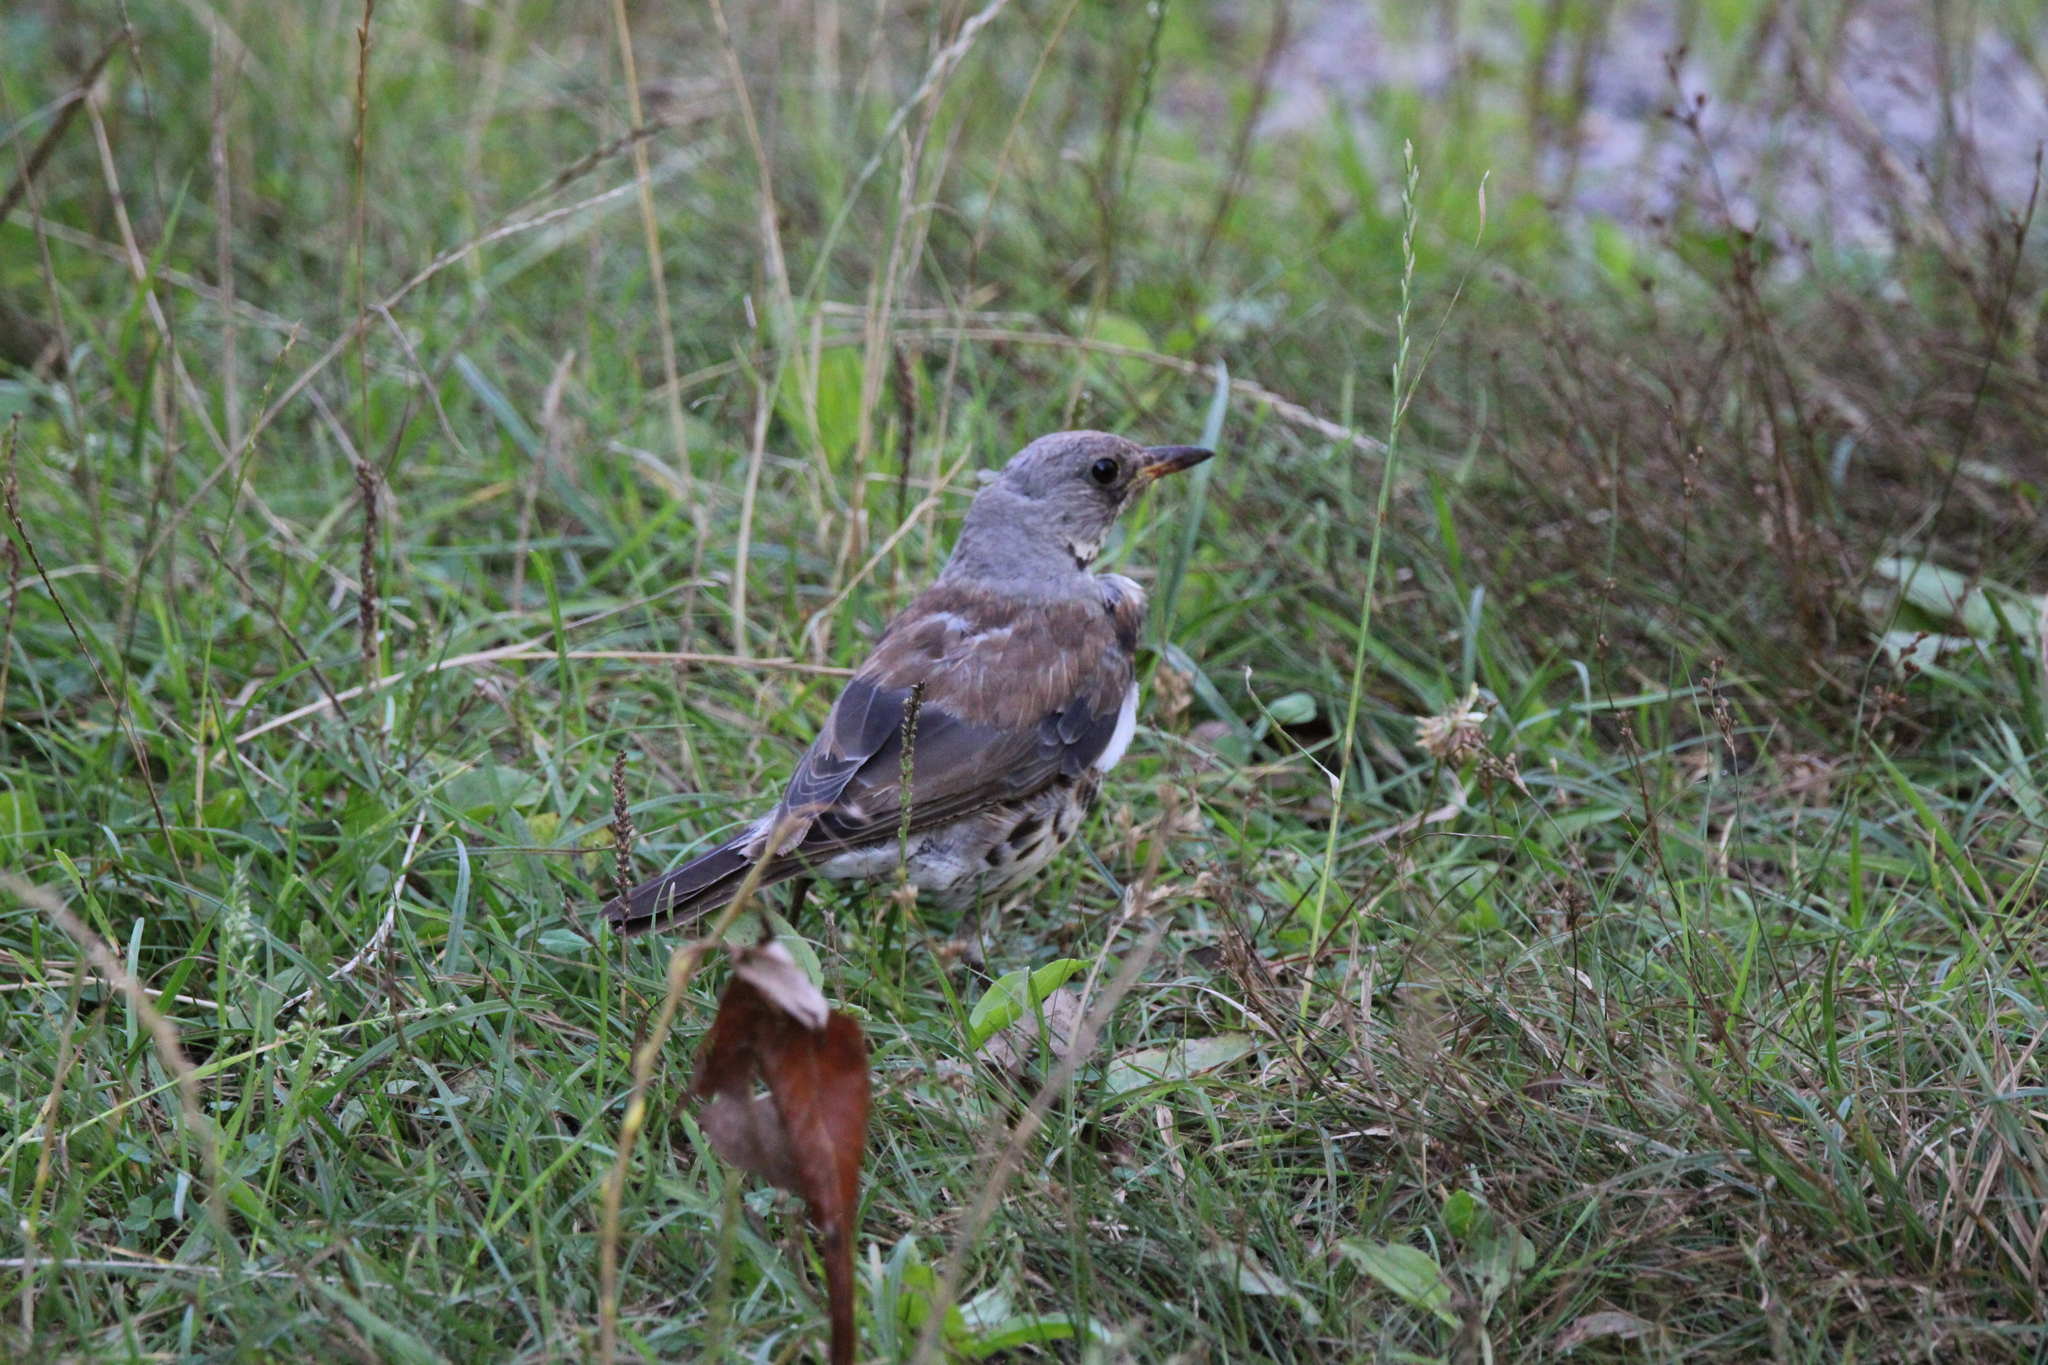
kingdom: Animalia
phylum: Chordata
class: Aves
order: Passeriformes
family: Turdidae
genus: Turdus
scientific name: Turdus pilaris
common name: Fieldfare
